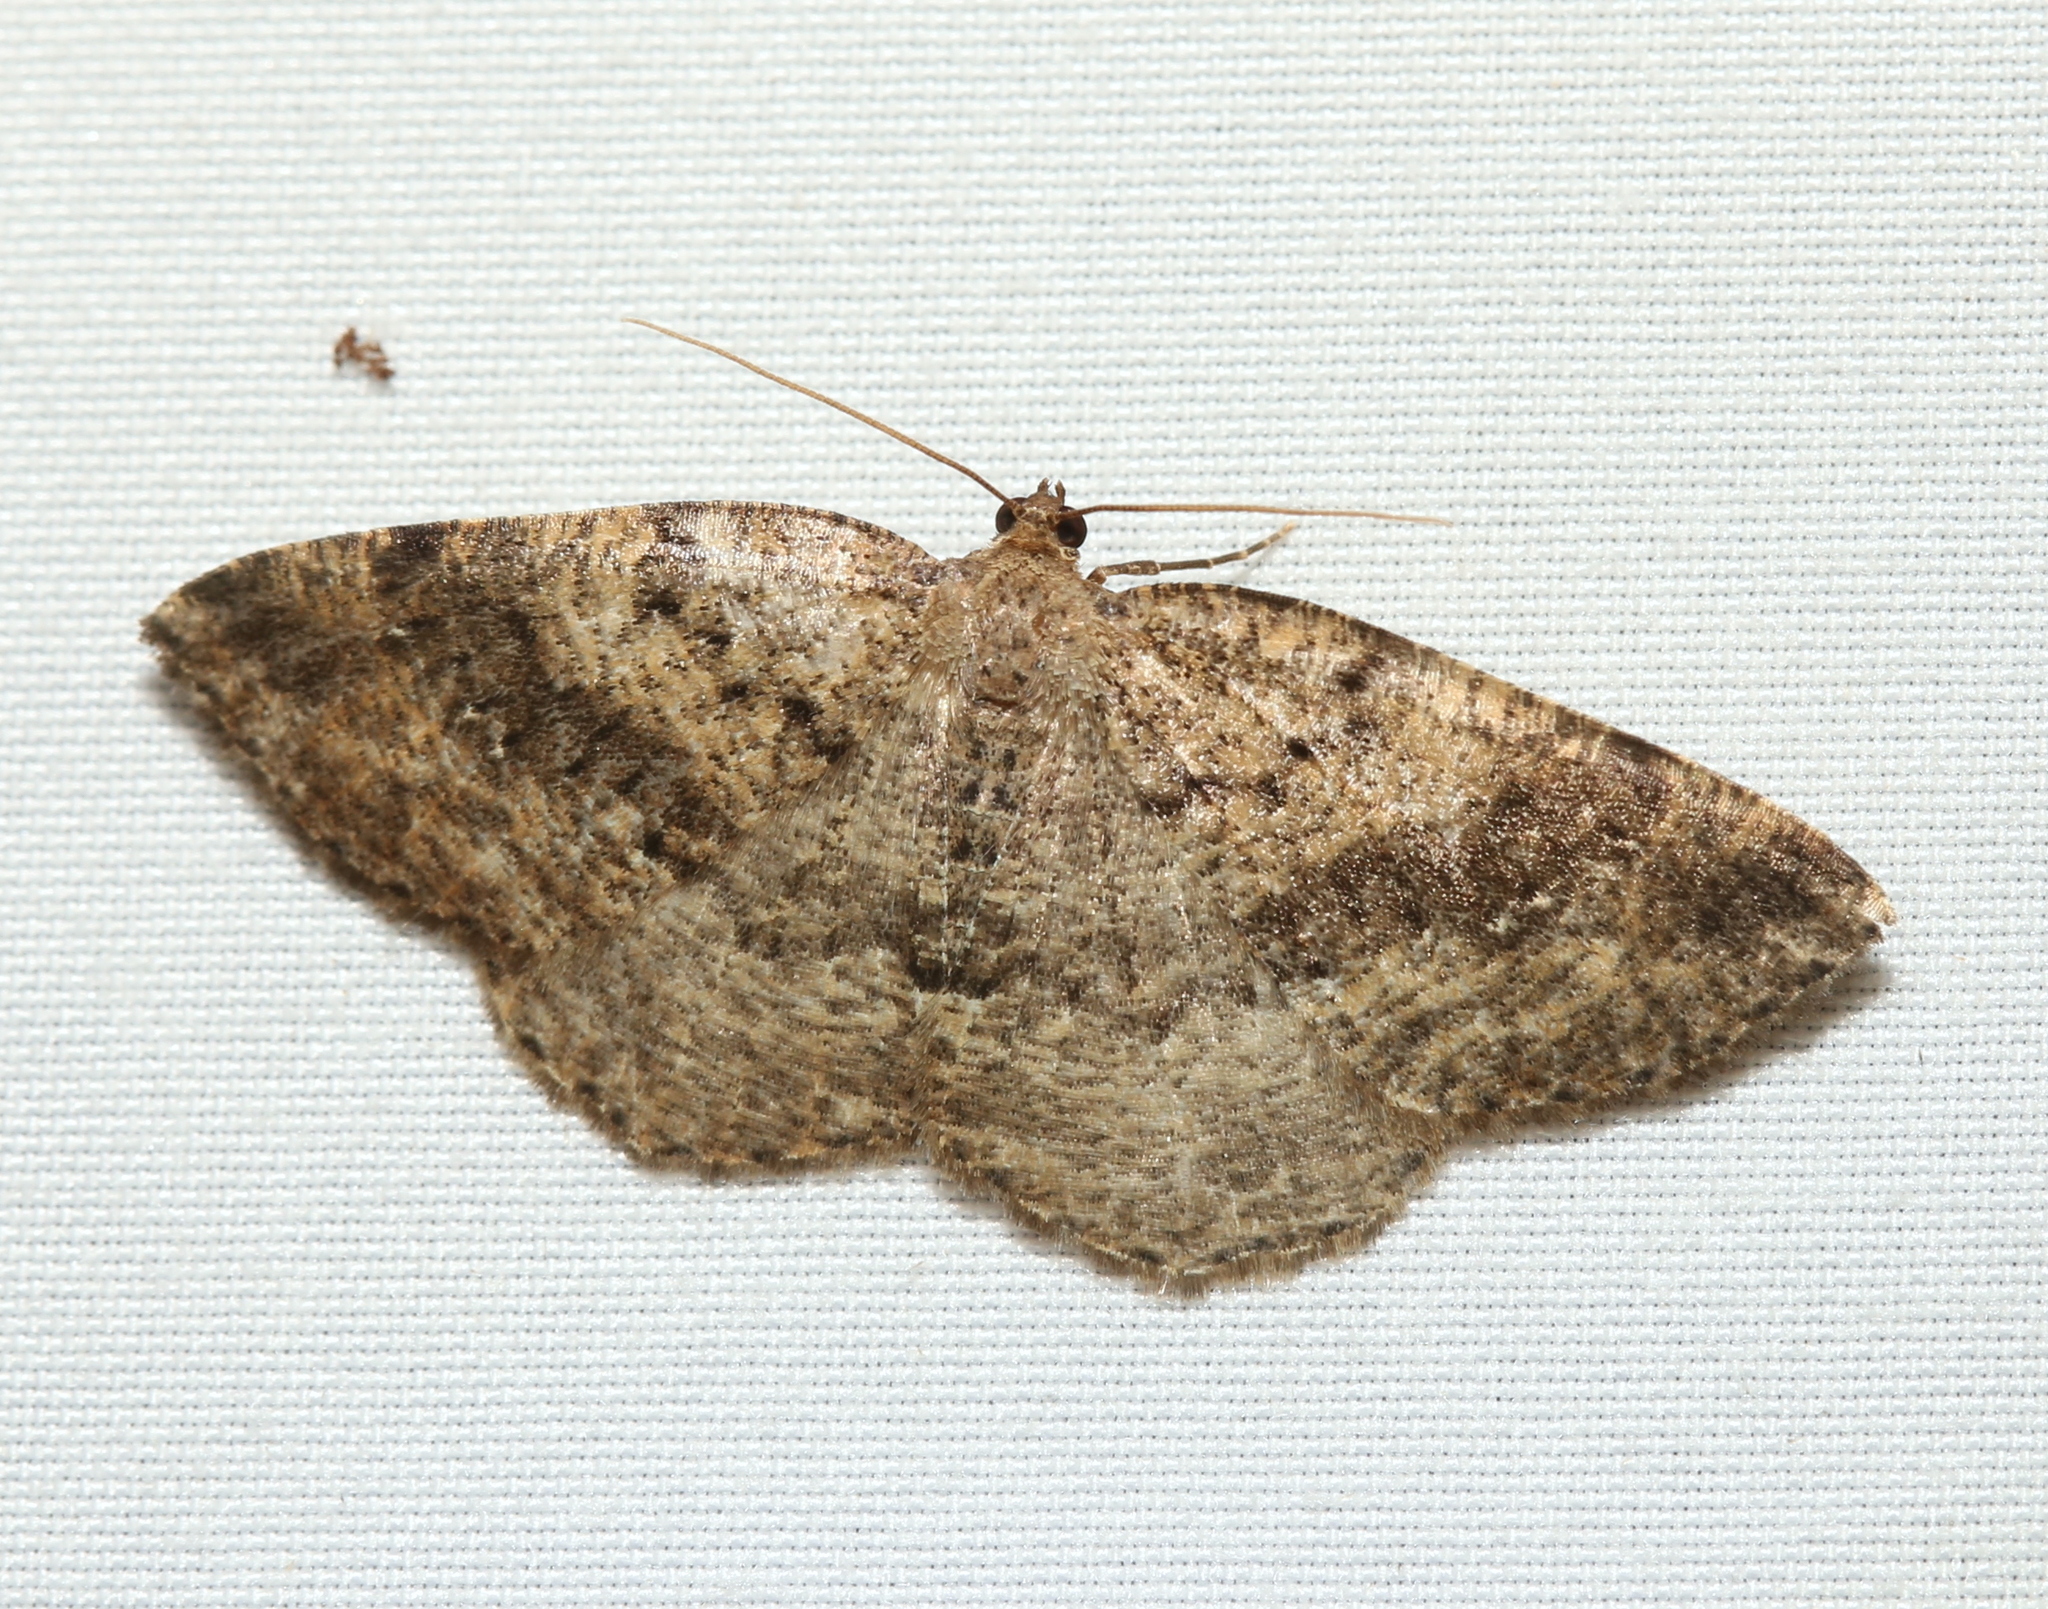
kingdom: Animalia
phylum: Arthropoda
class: Insecta
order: Lepidoptera
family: Geometridae
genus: Homochlodes
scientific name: Homochlodes fritillaria
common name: Pale homochlodes
